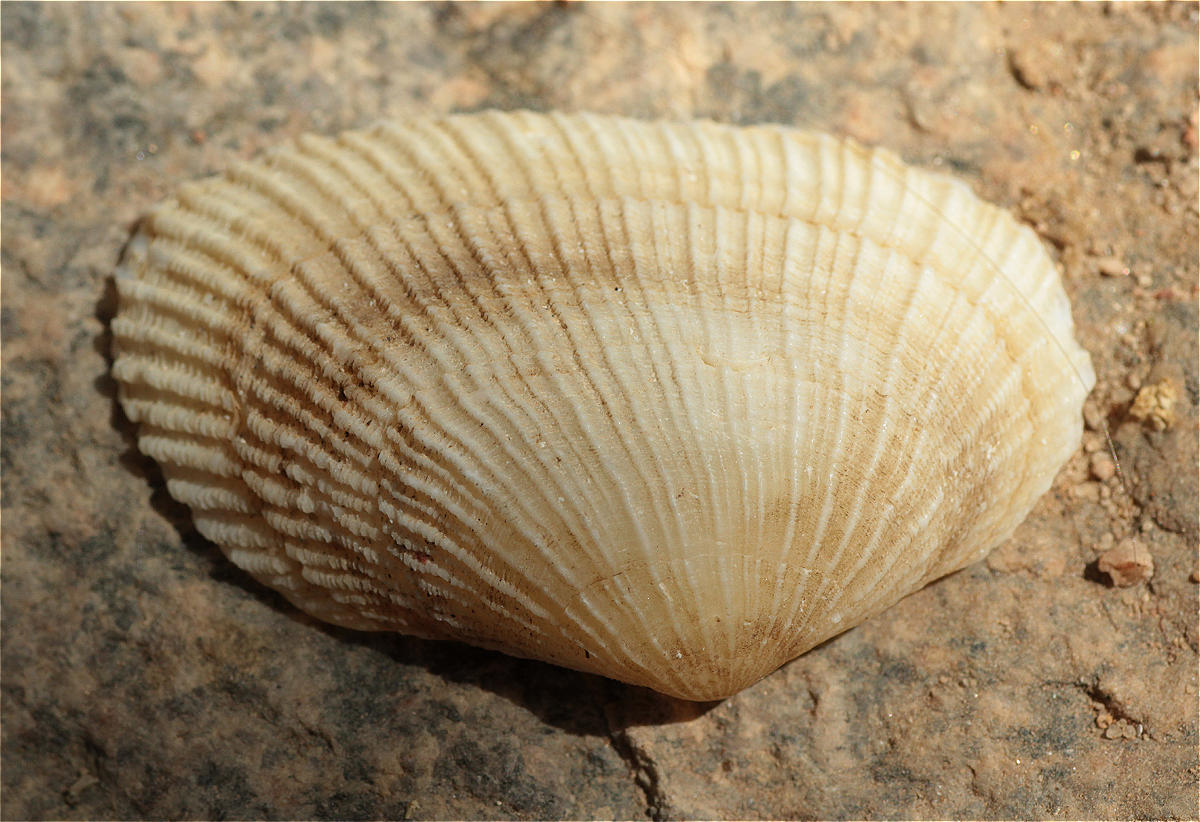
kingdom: Animalia
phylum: Mollusca
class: Bivalvia
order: Cardiida
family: Psammobiidae
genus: Asaphis
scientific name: Asaphis violascens
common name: Pacific asaphis
